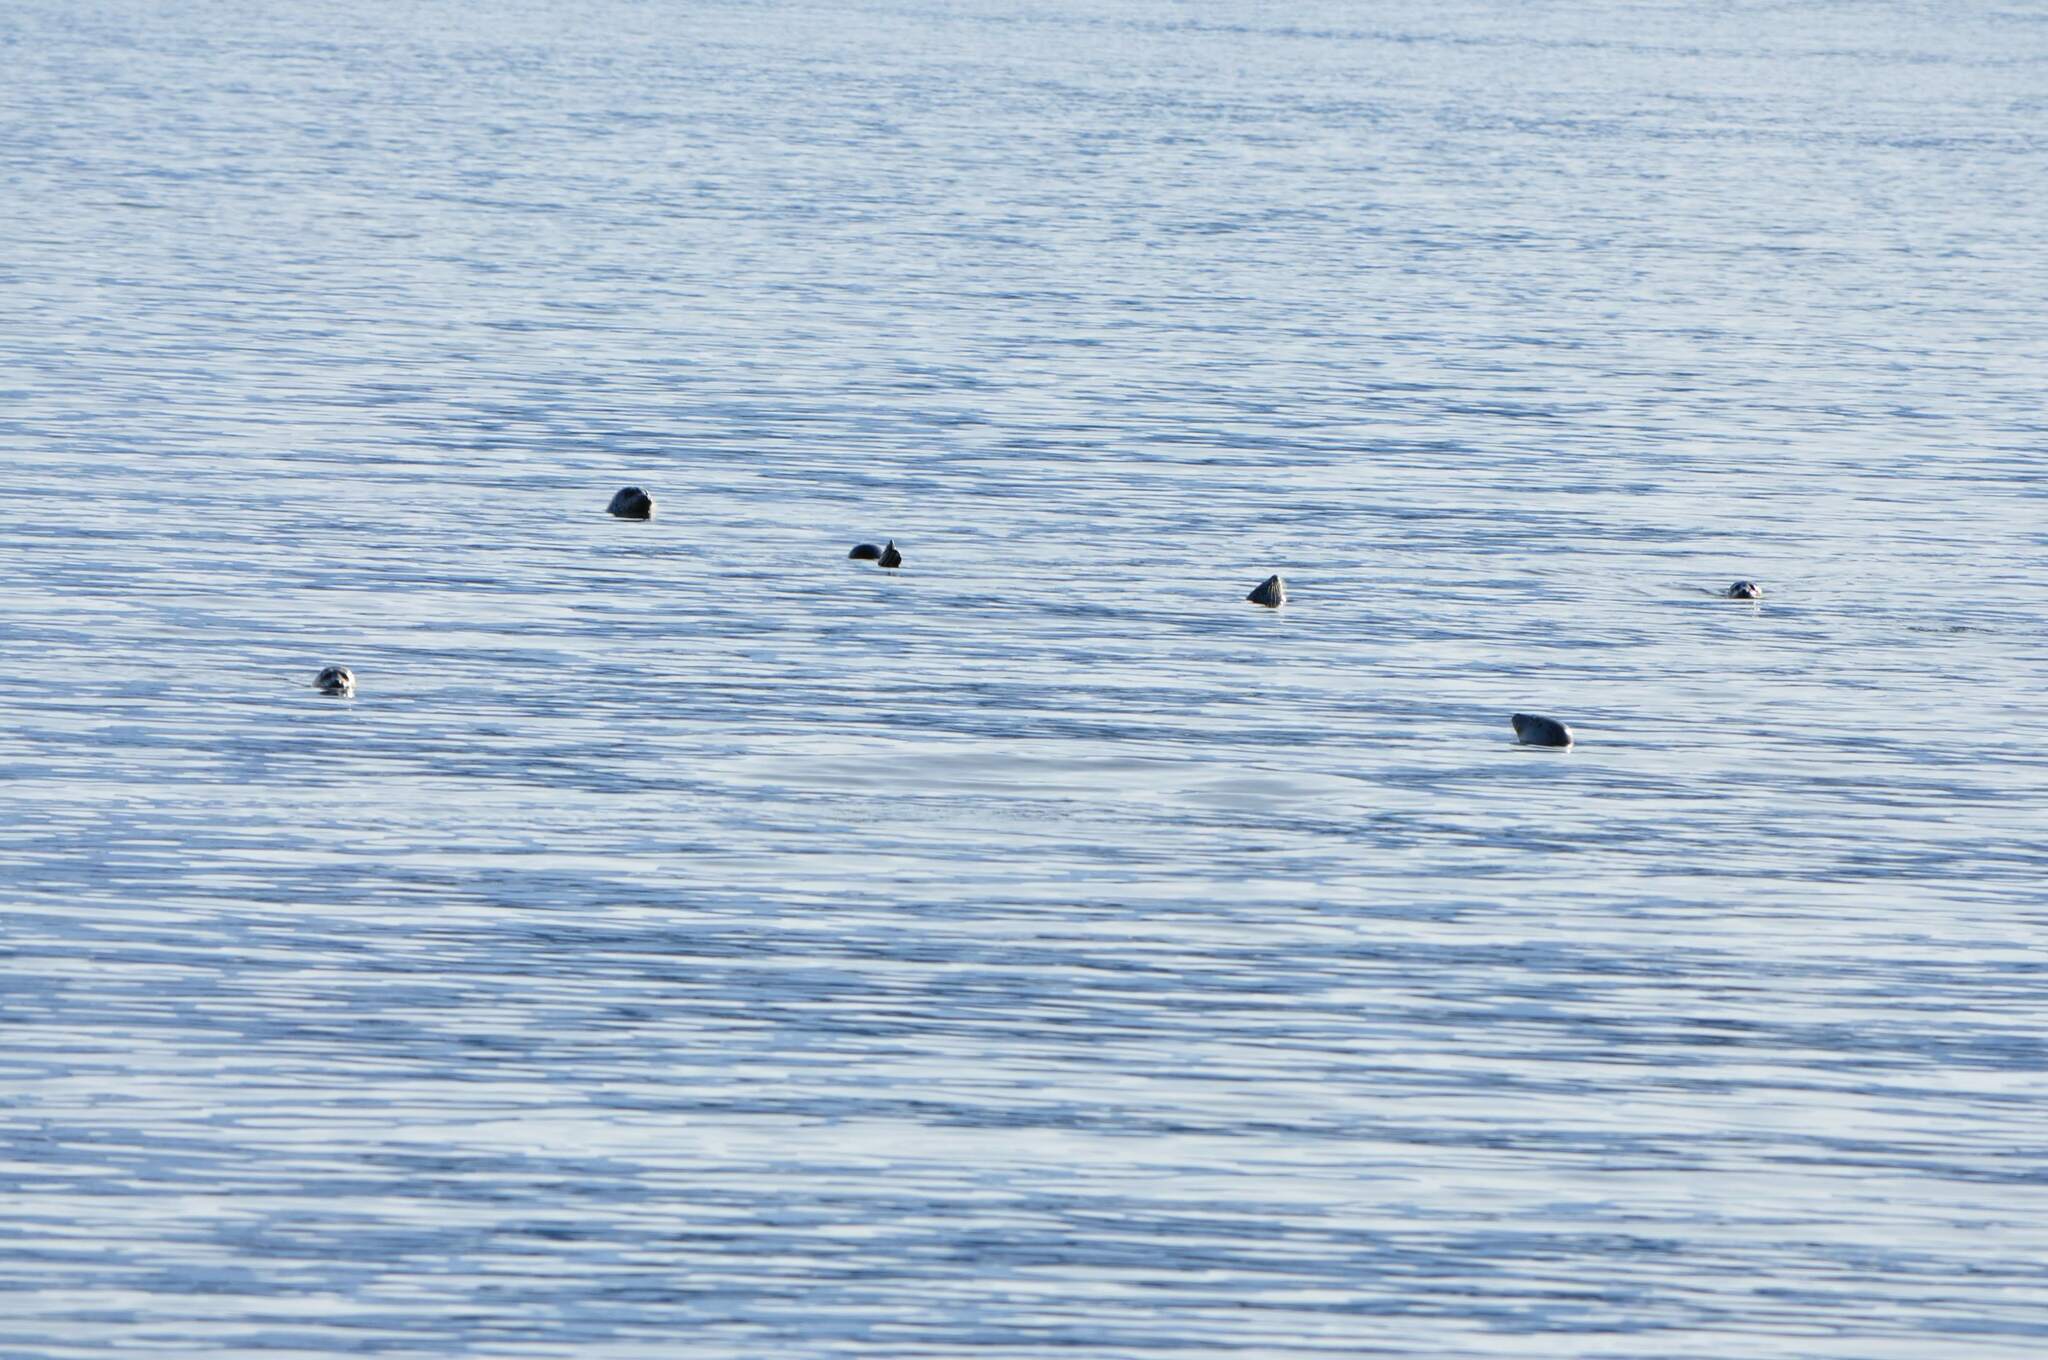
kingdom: Animalia
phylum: Chordata
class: Mammalia
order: Carnivora
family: Phocidae
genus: Phoca
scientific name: Phoca vitulina
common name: Harbor seal
